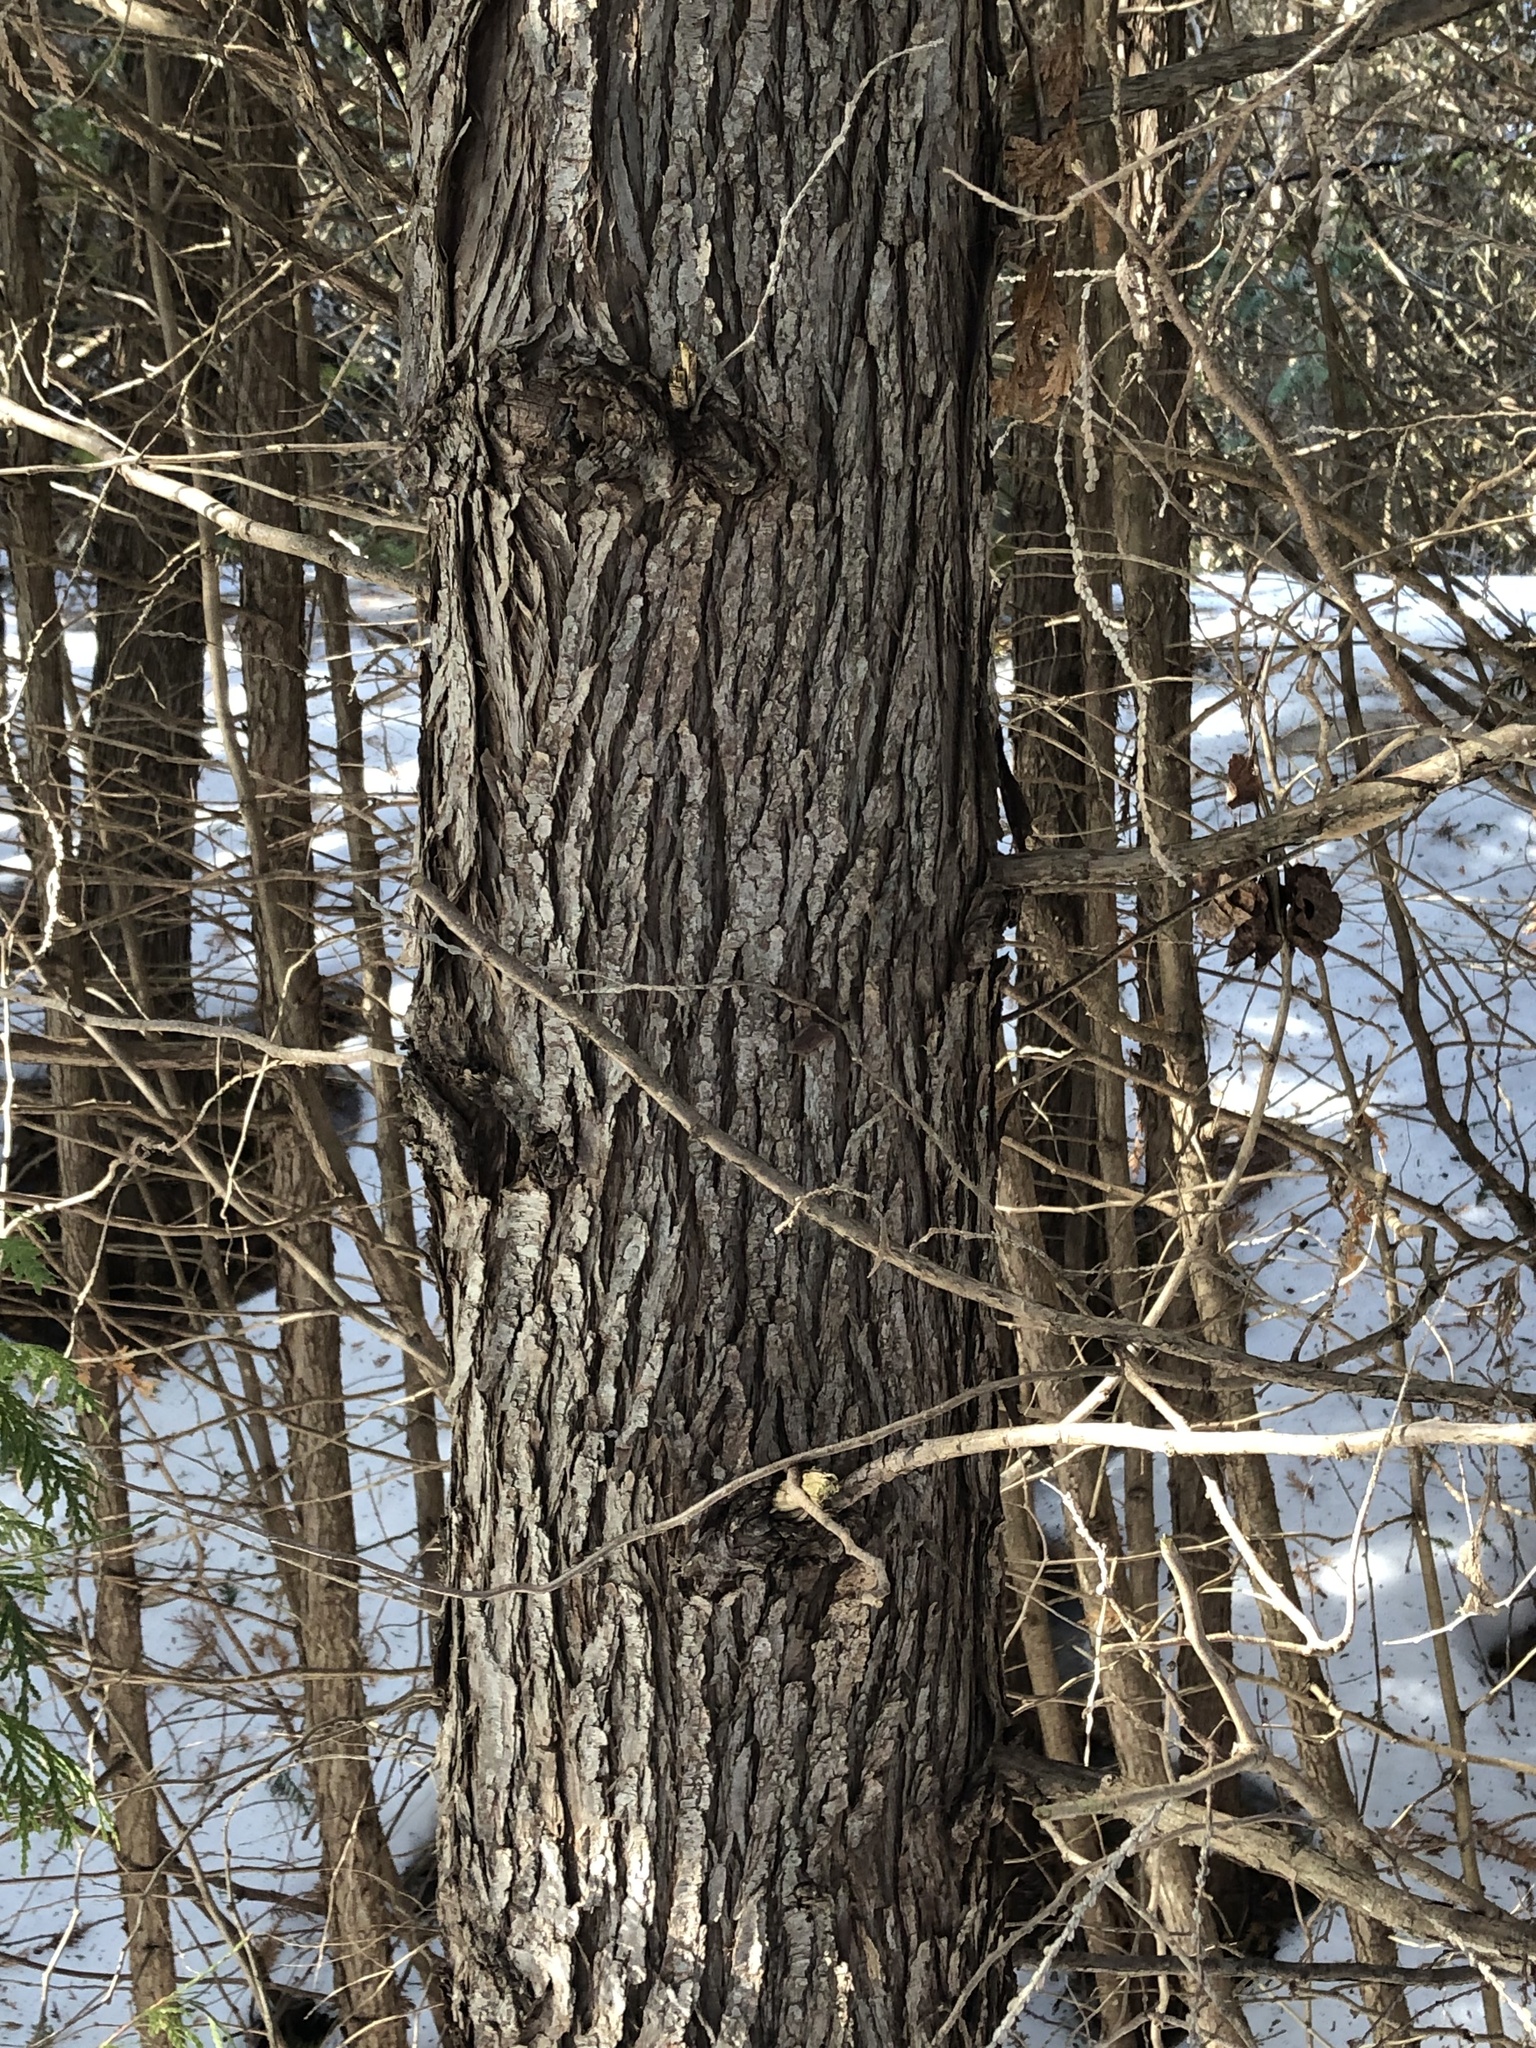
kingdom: Plantae
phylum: Tracheophyta
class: Pinopsida
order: Pinales
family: Cupressaceae
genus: Thuja
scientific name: Thuja occidentalis
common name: Northern white-cedar
